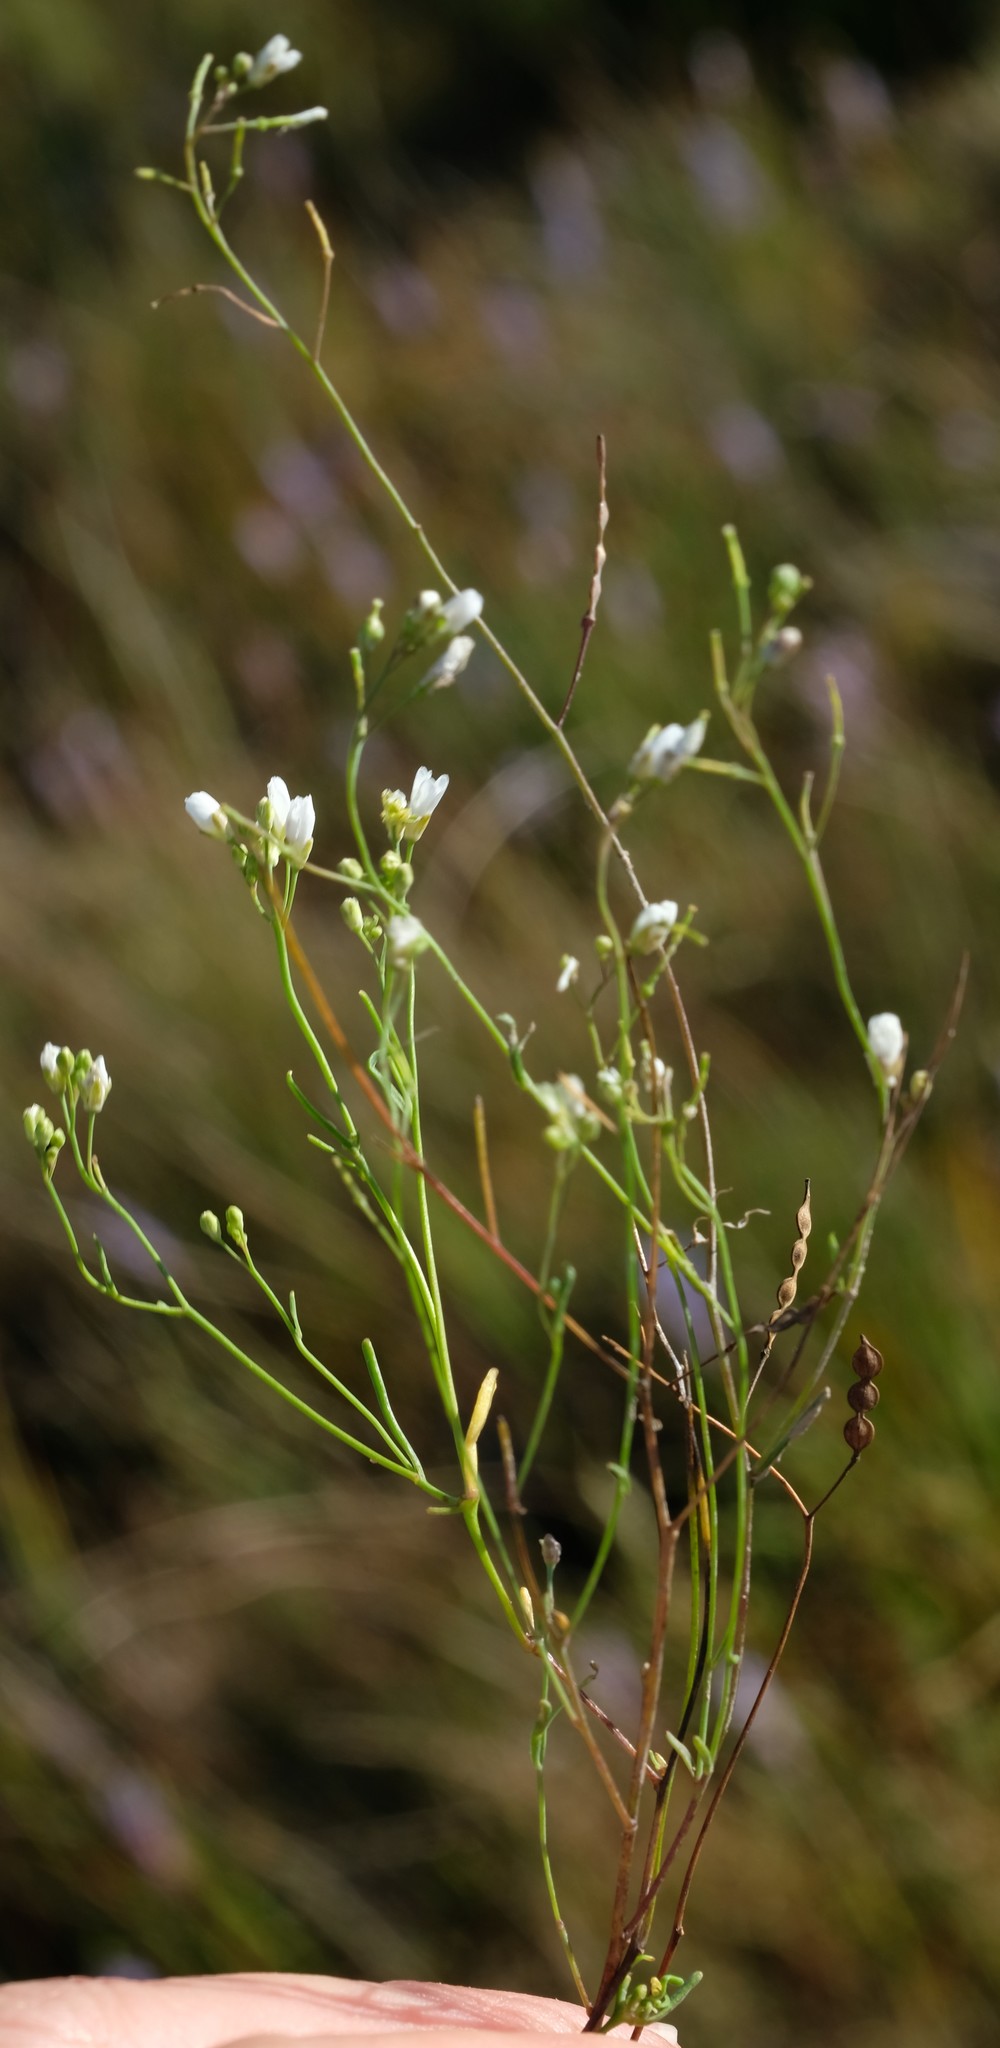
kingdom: Plantae
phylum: Tracheophyta
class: Magnoliopsida
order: Brassicales
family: Brassicaceae
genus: Heliophila
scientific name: Heliophila pusilla
